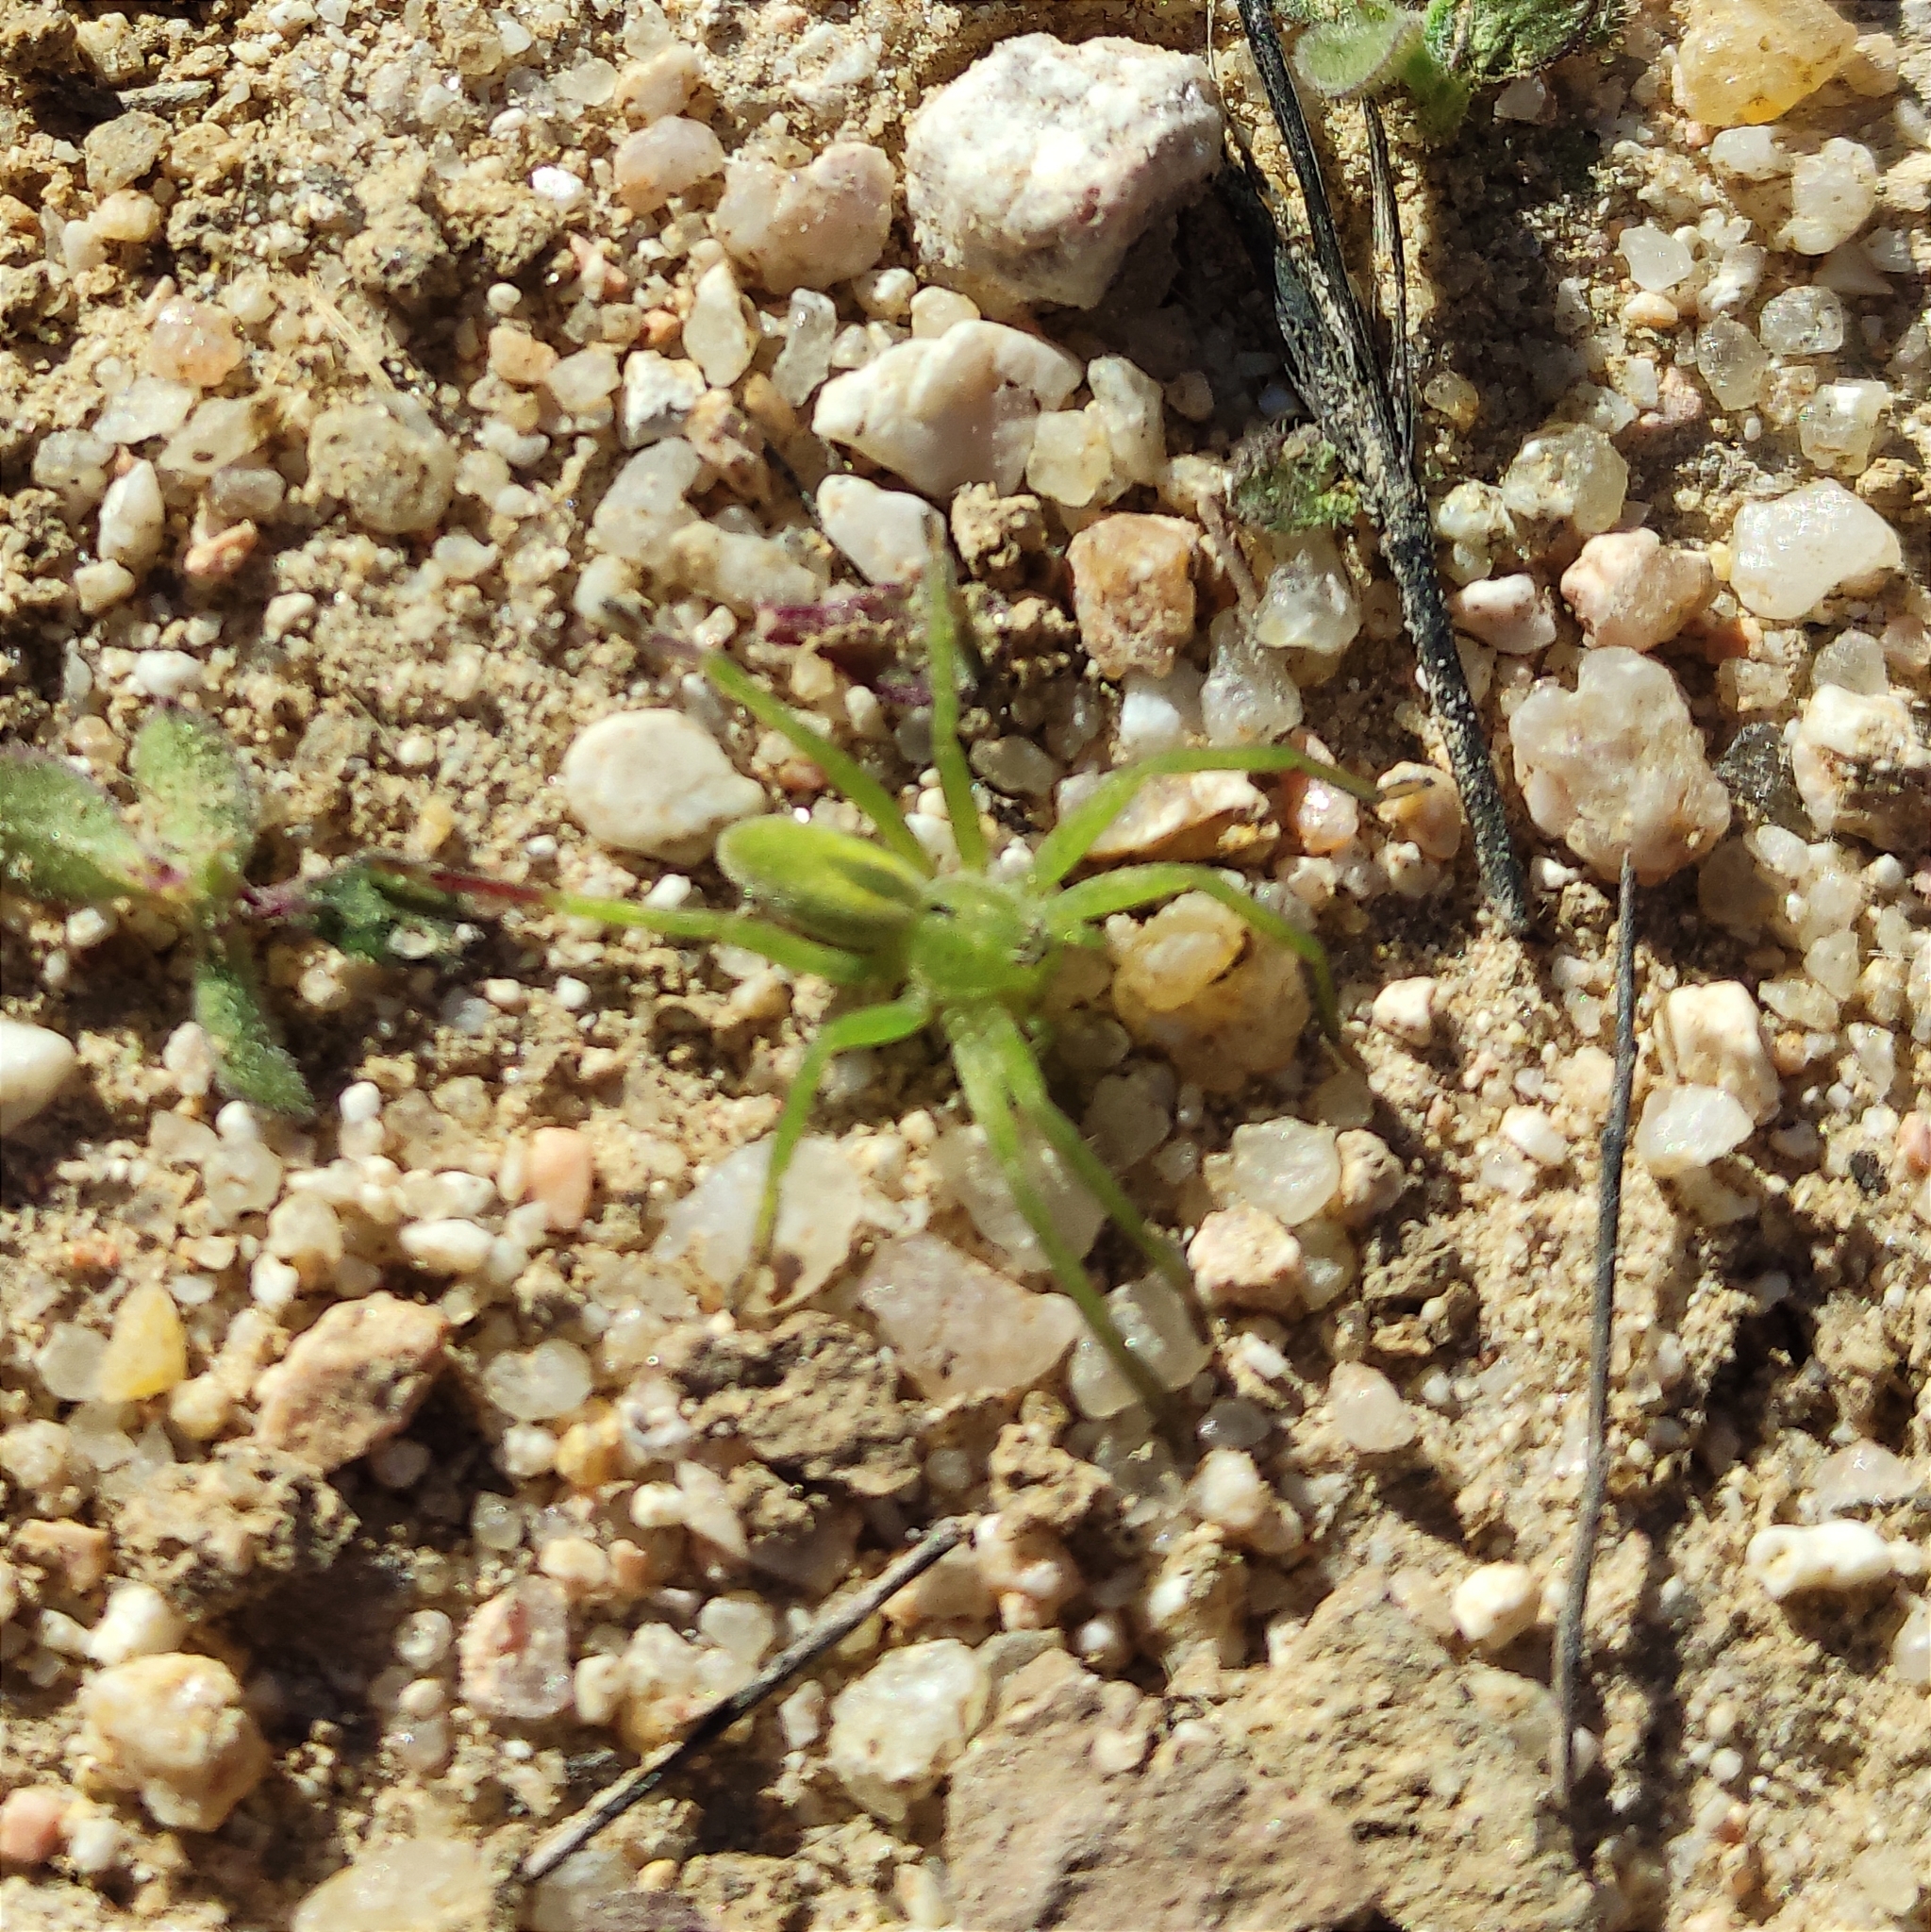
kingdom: Animalia
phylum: Arthropoda
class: Arachnida
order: Araneae
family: Sparassidae
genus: Micrommata
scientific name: Micrommata ligurina
